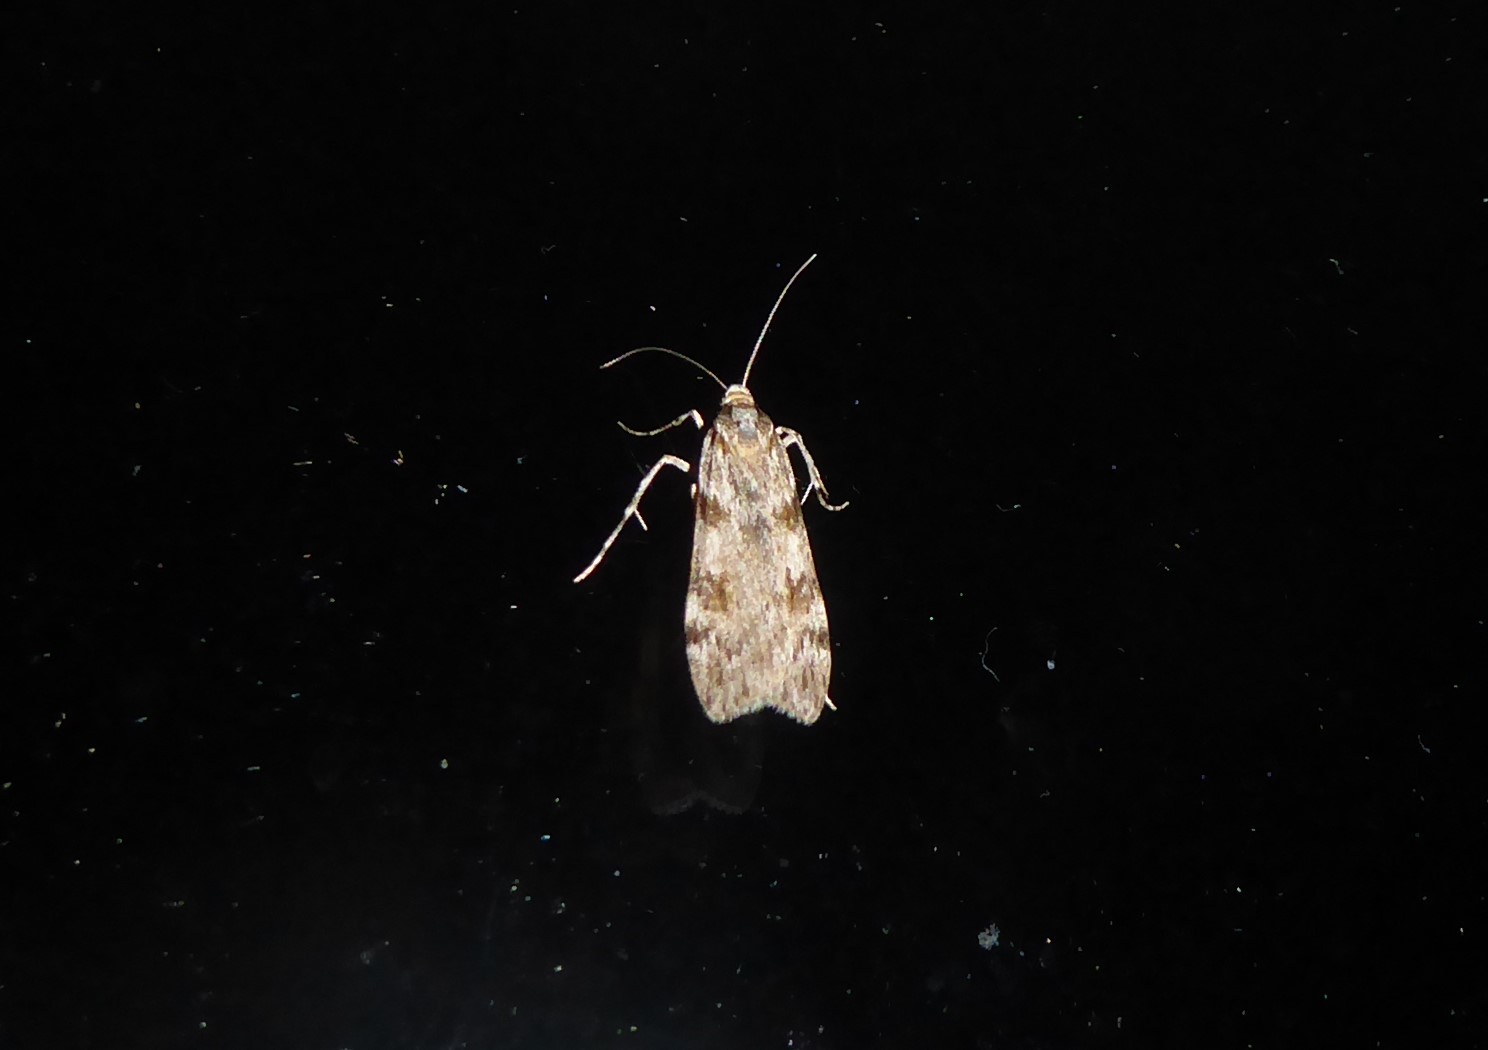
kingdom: Animalia
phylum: Arthropoda
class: Insecta
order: Lepidoptera
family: Crambidae
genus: Scoparia
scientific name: Scoparia halopis
